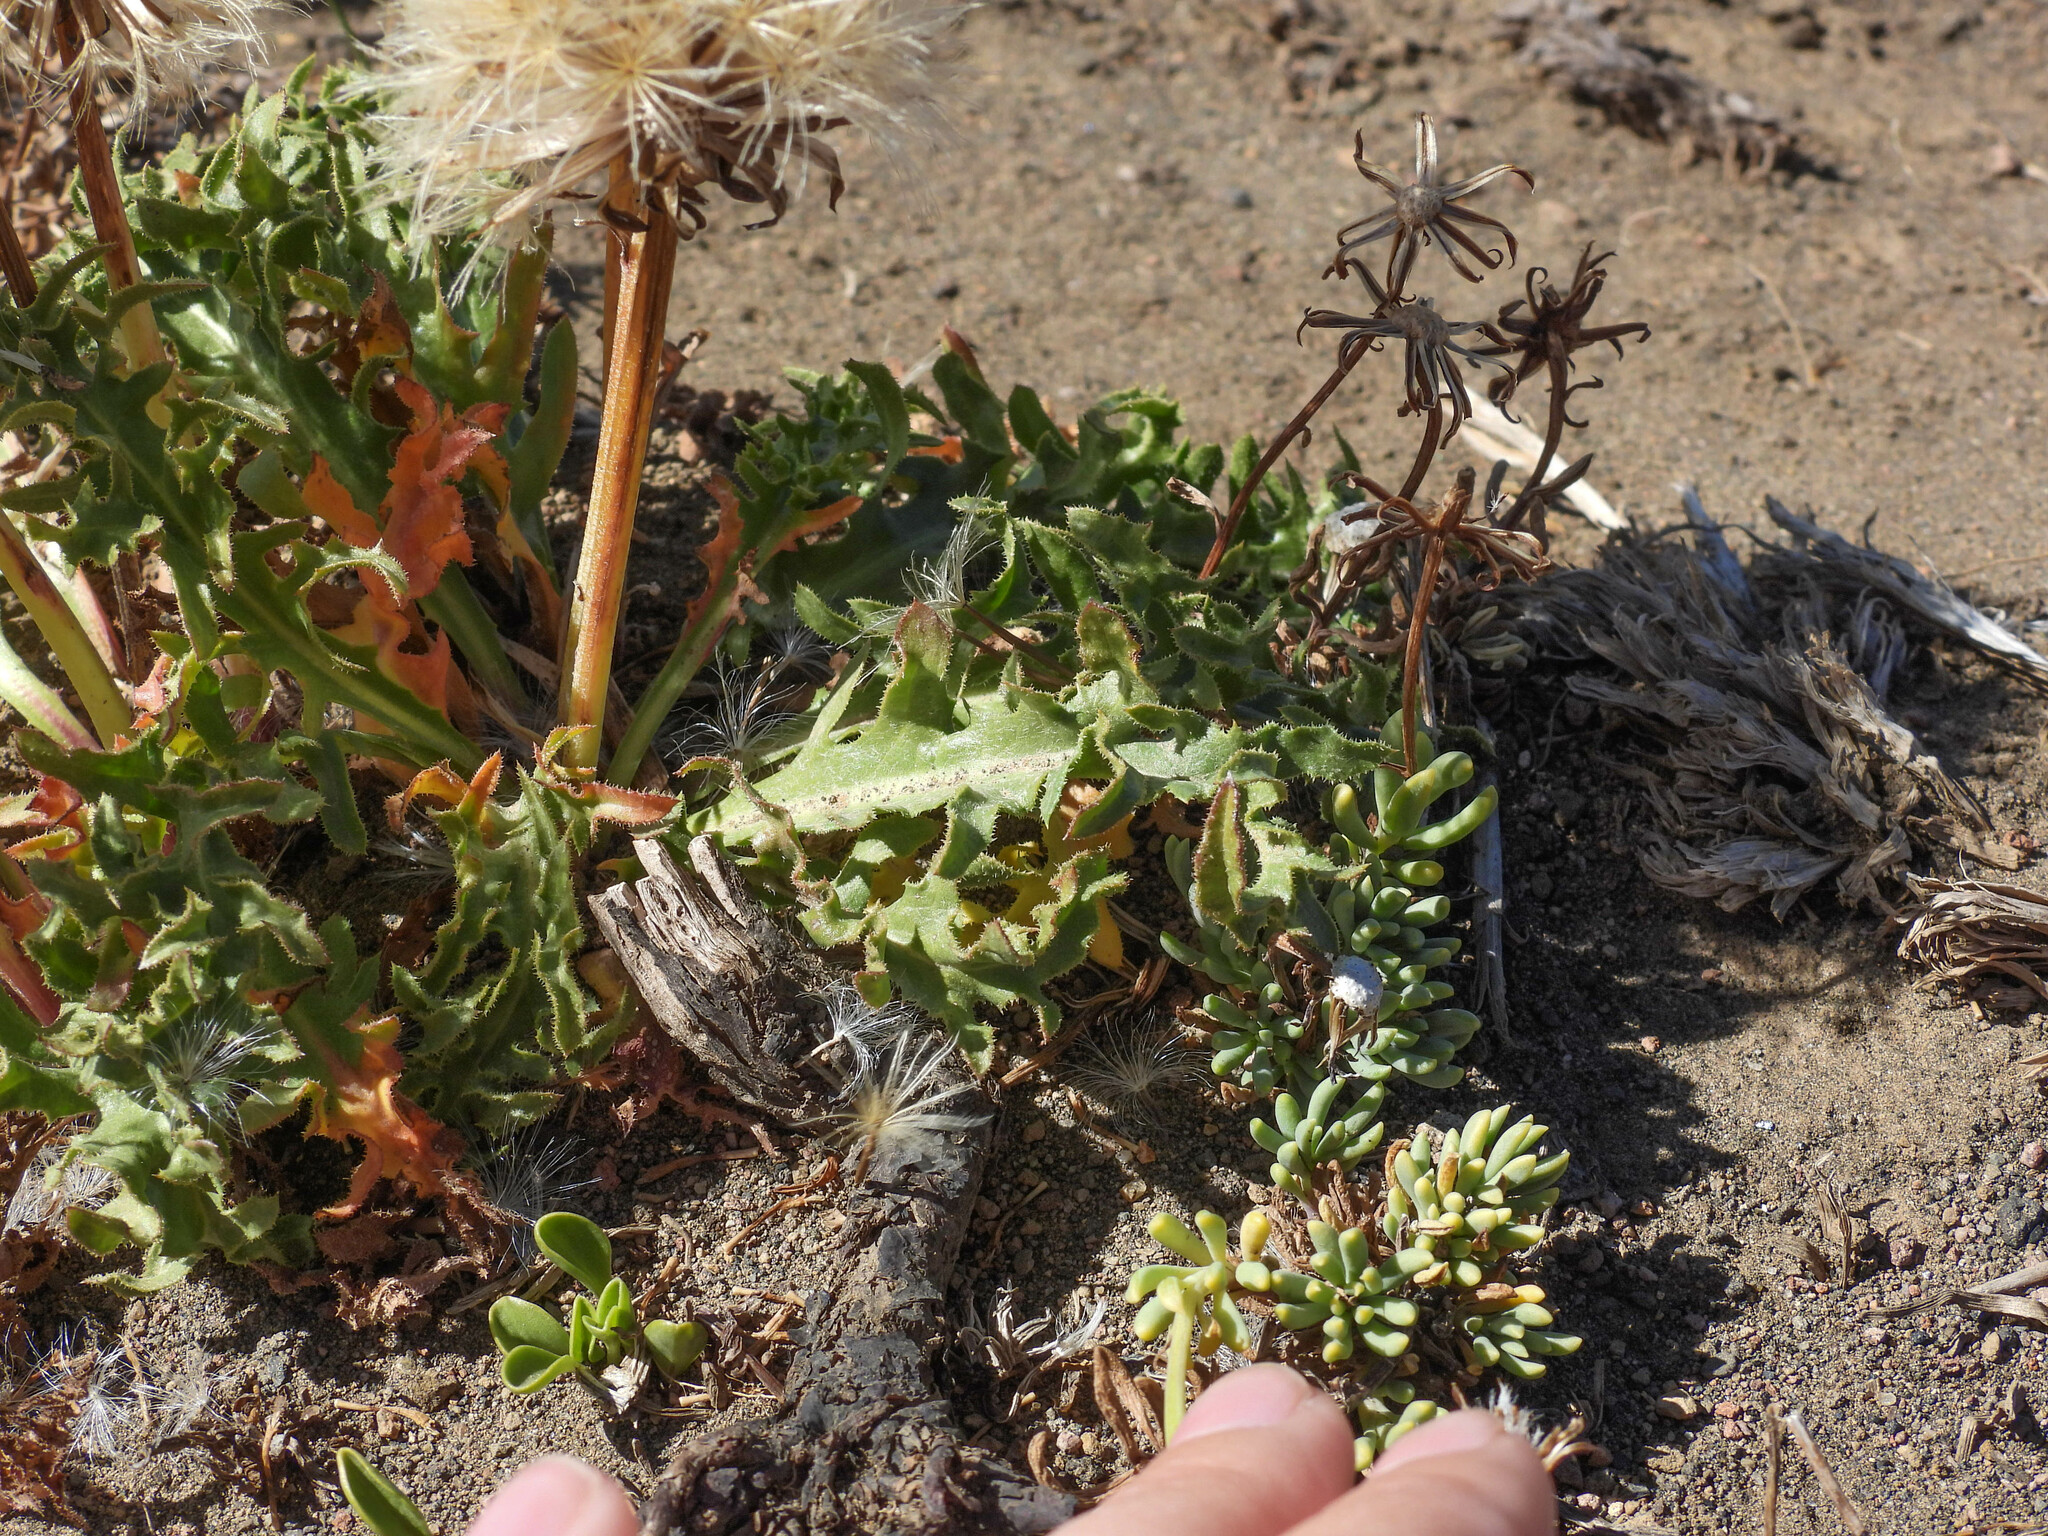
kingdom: Plantae
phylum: Tracheophyta
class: Magnoliopsida
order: Asterales
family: Asteraceae
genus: Hypochaeris
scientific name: Hypochaeris tenuifolia
